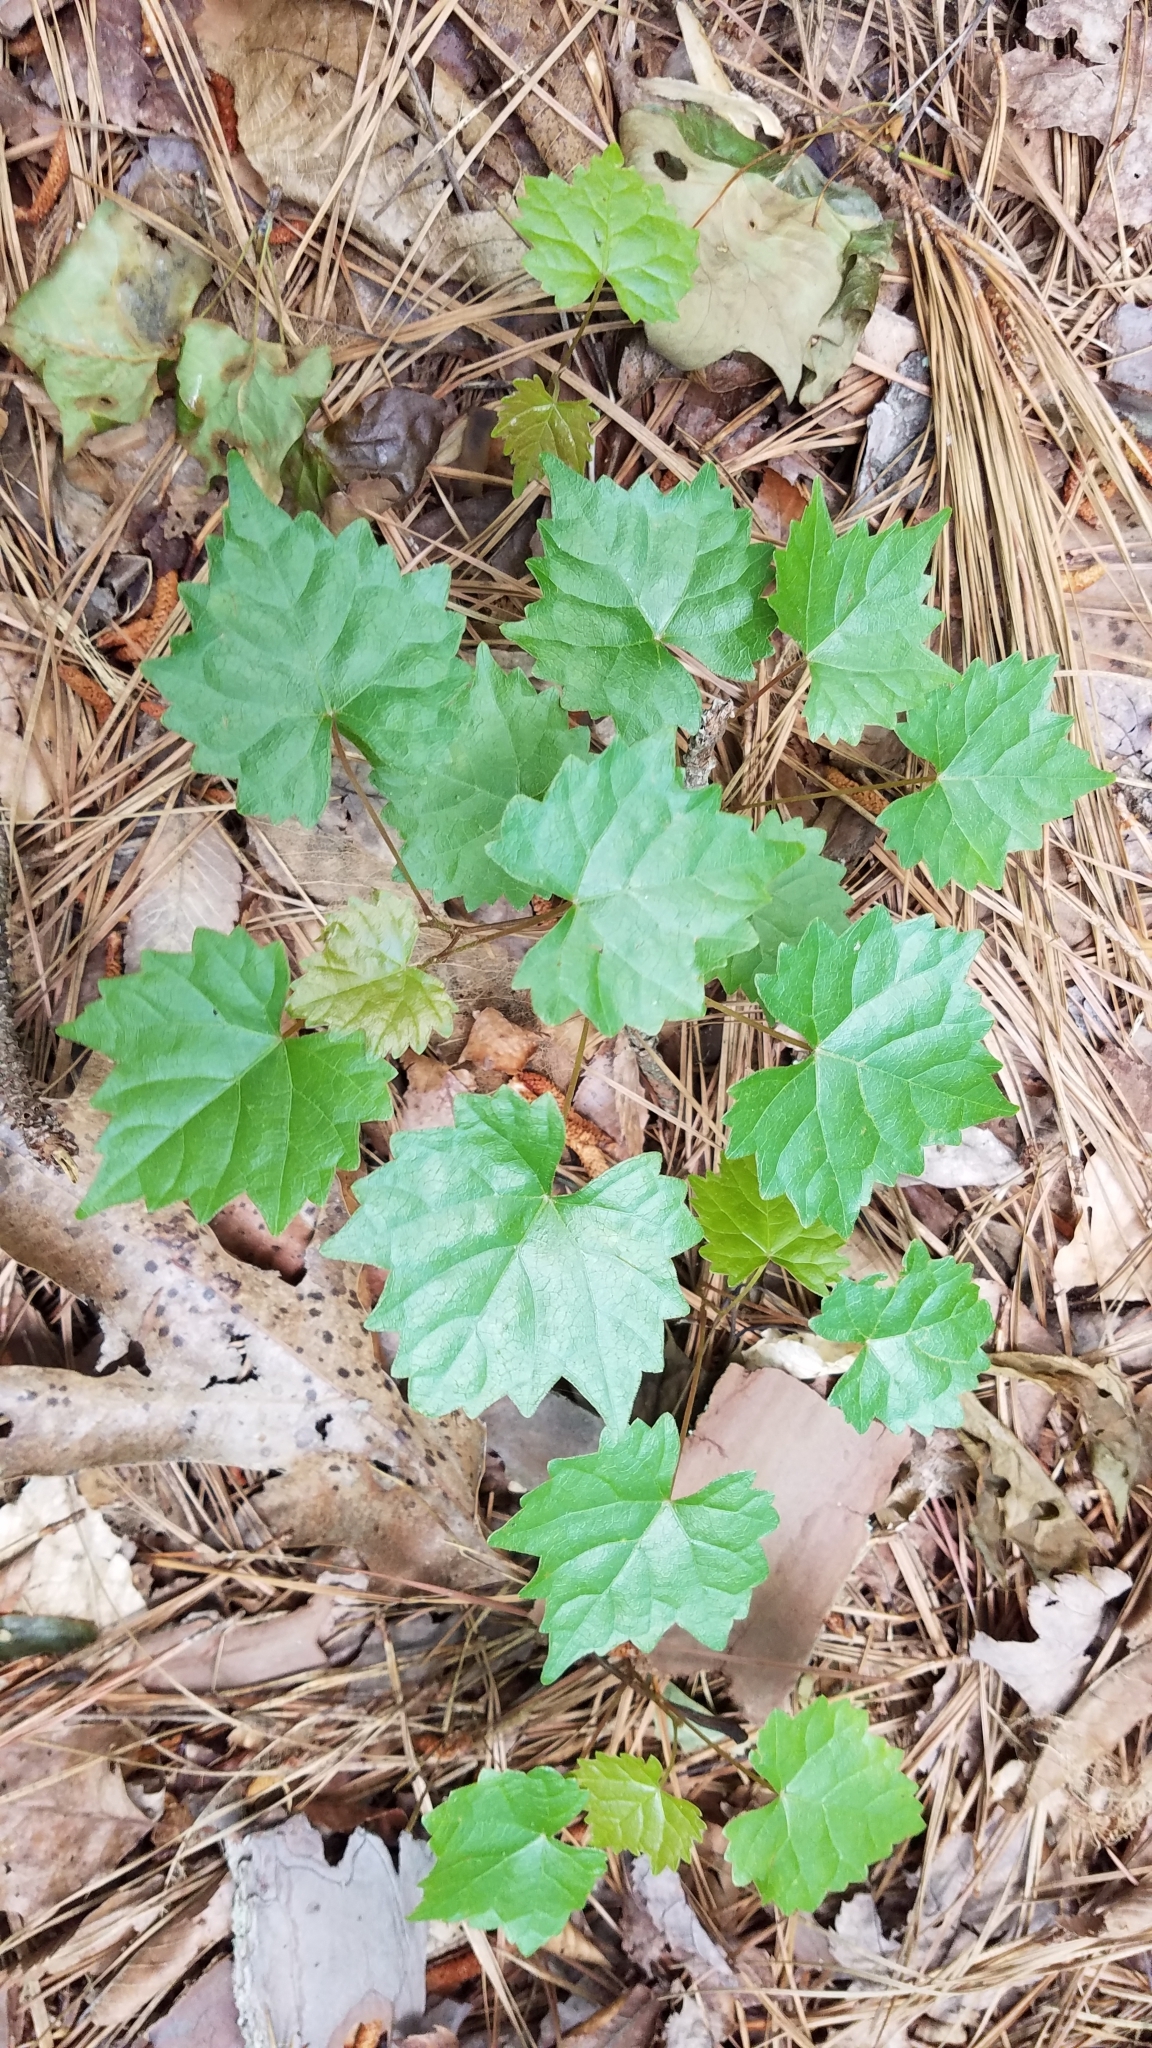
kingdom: Plantae
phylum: Tracheophyta
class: Magnoliopsida
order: Vitales
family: Vitaceae
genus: Vitis
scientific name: Vitis rotundifolia
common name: Muscadine grape
